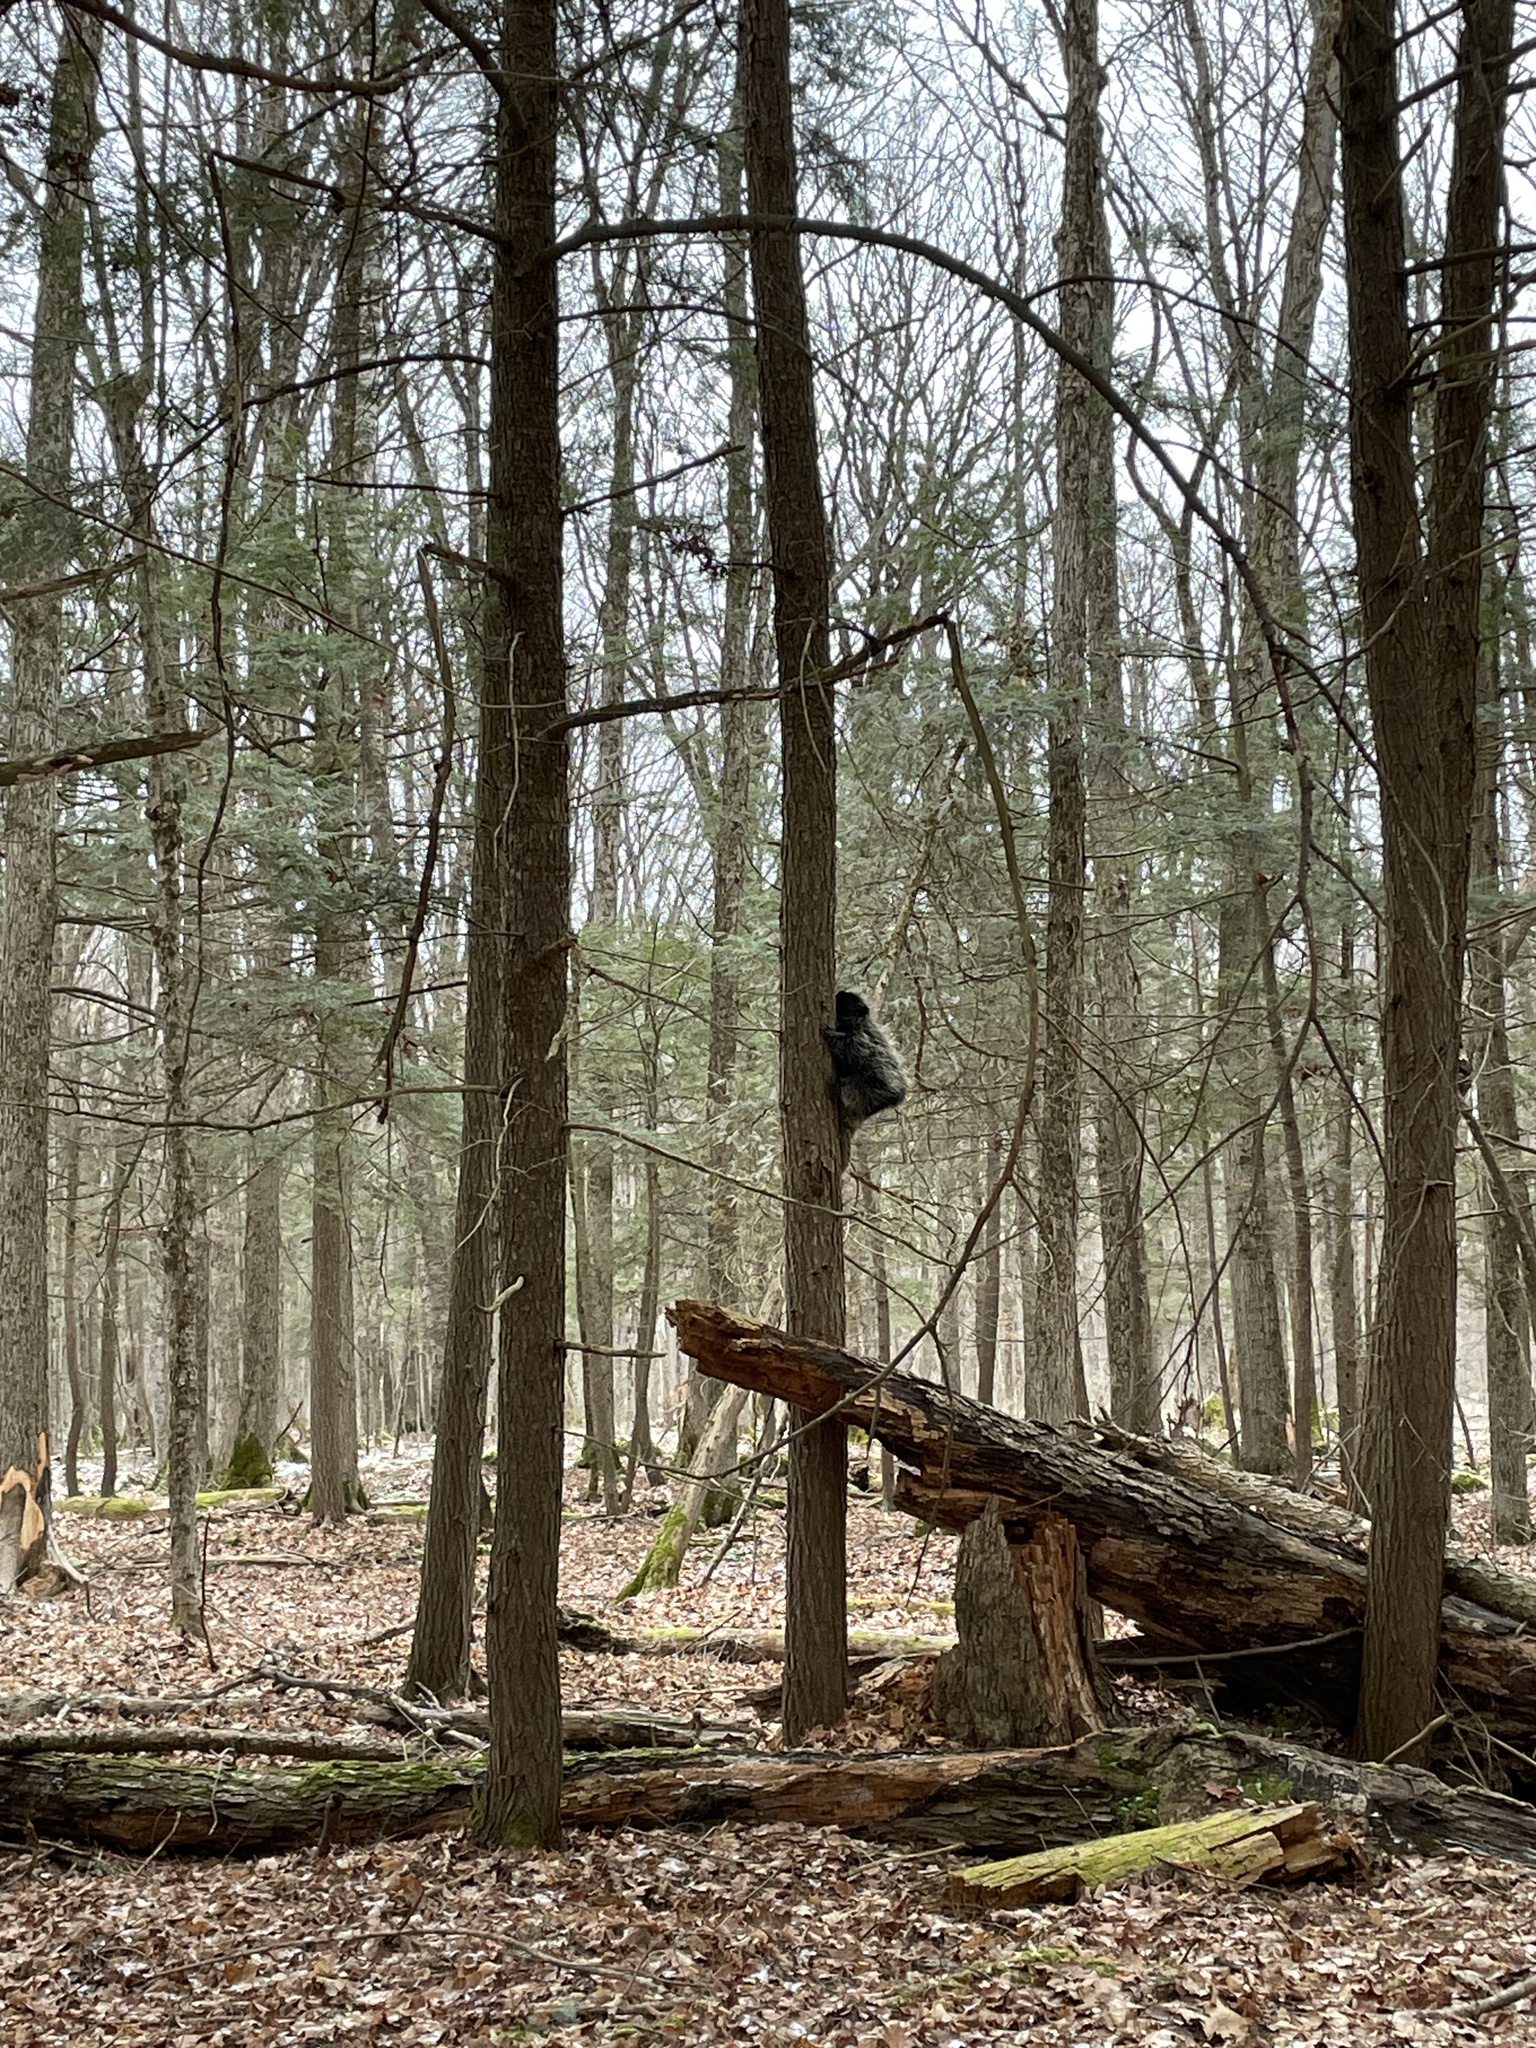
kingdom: Animalia
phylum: Chordata
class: Mammalia
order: Rodentia
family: Erethizontidae
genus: Erethizon
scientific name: Erethizon dorsatus
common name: North american porcupine
